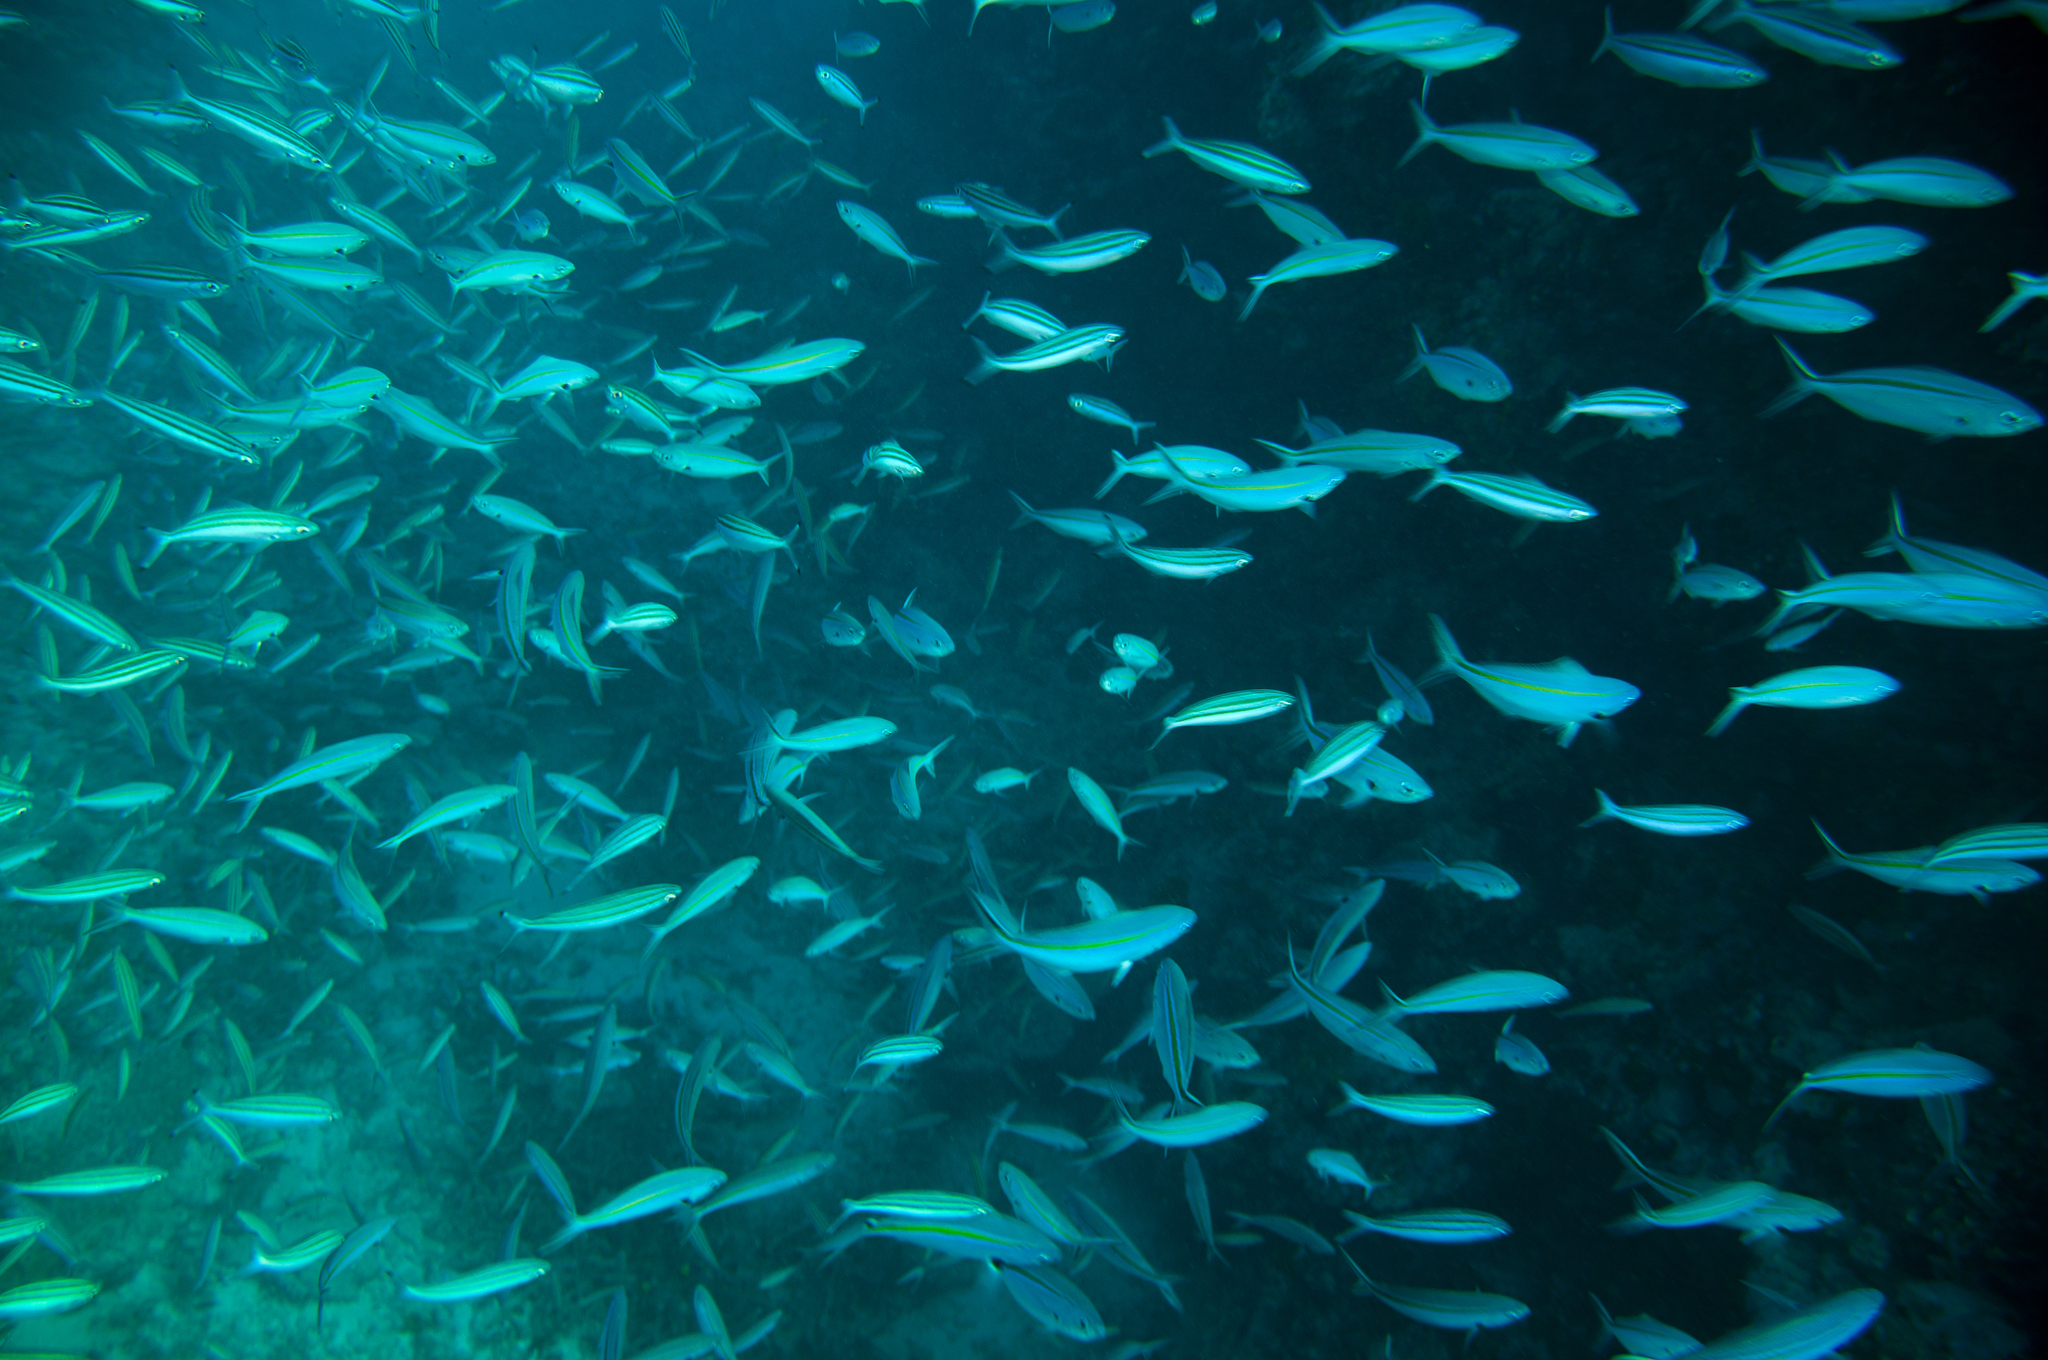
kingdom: Animalia
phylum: Chordata
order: Perciformes
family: Caesionidae
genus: Pterocaesio
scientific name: Pterocaesio trilineata
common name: Striped fusilier
